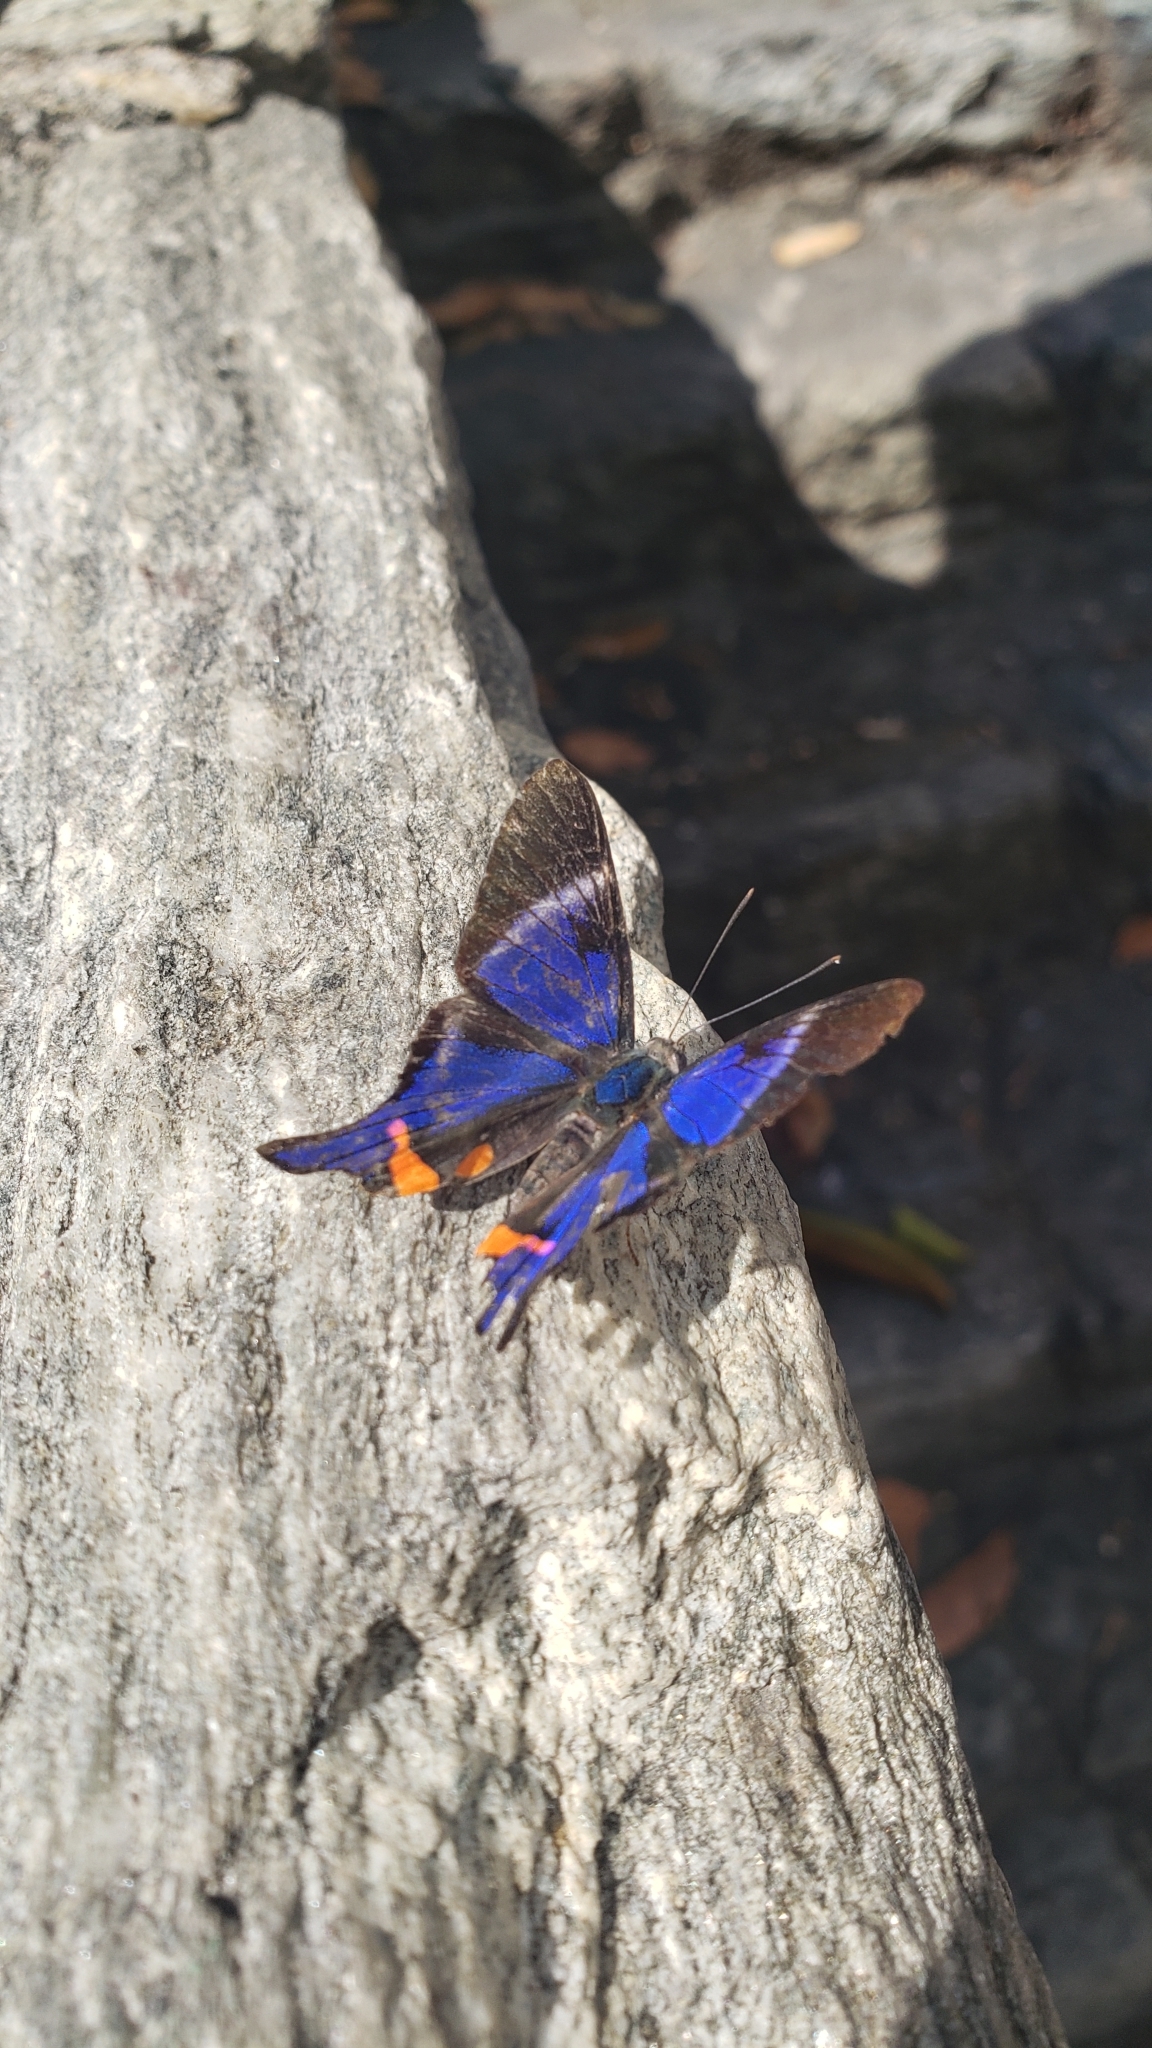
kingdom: Animalia
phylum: Arthropoda
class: Insecta
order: Lepidoptera
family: Riodinidae
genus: Rhetus
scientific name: Rhetus periander
